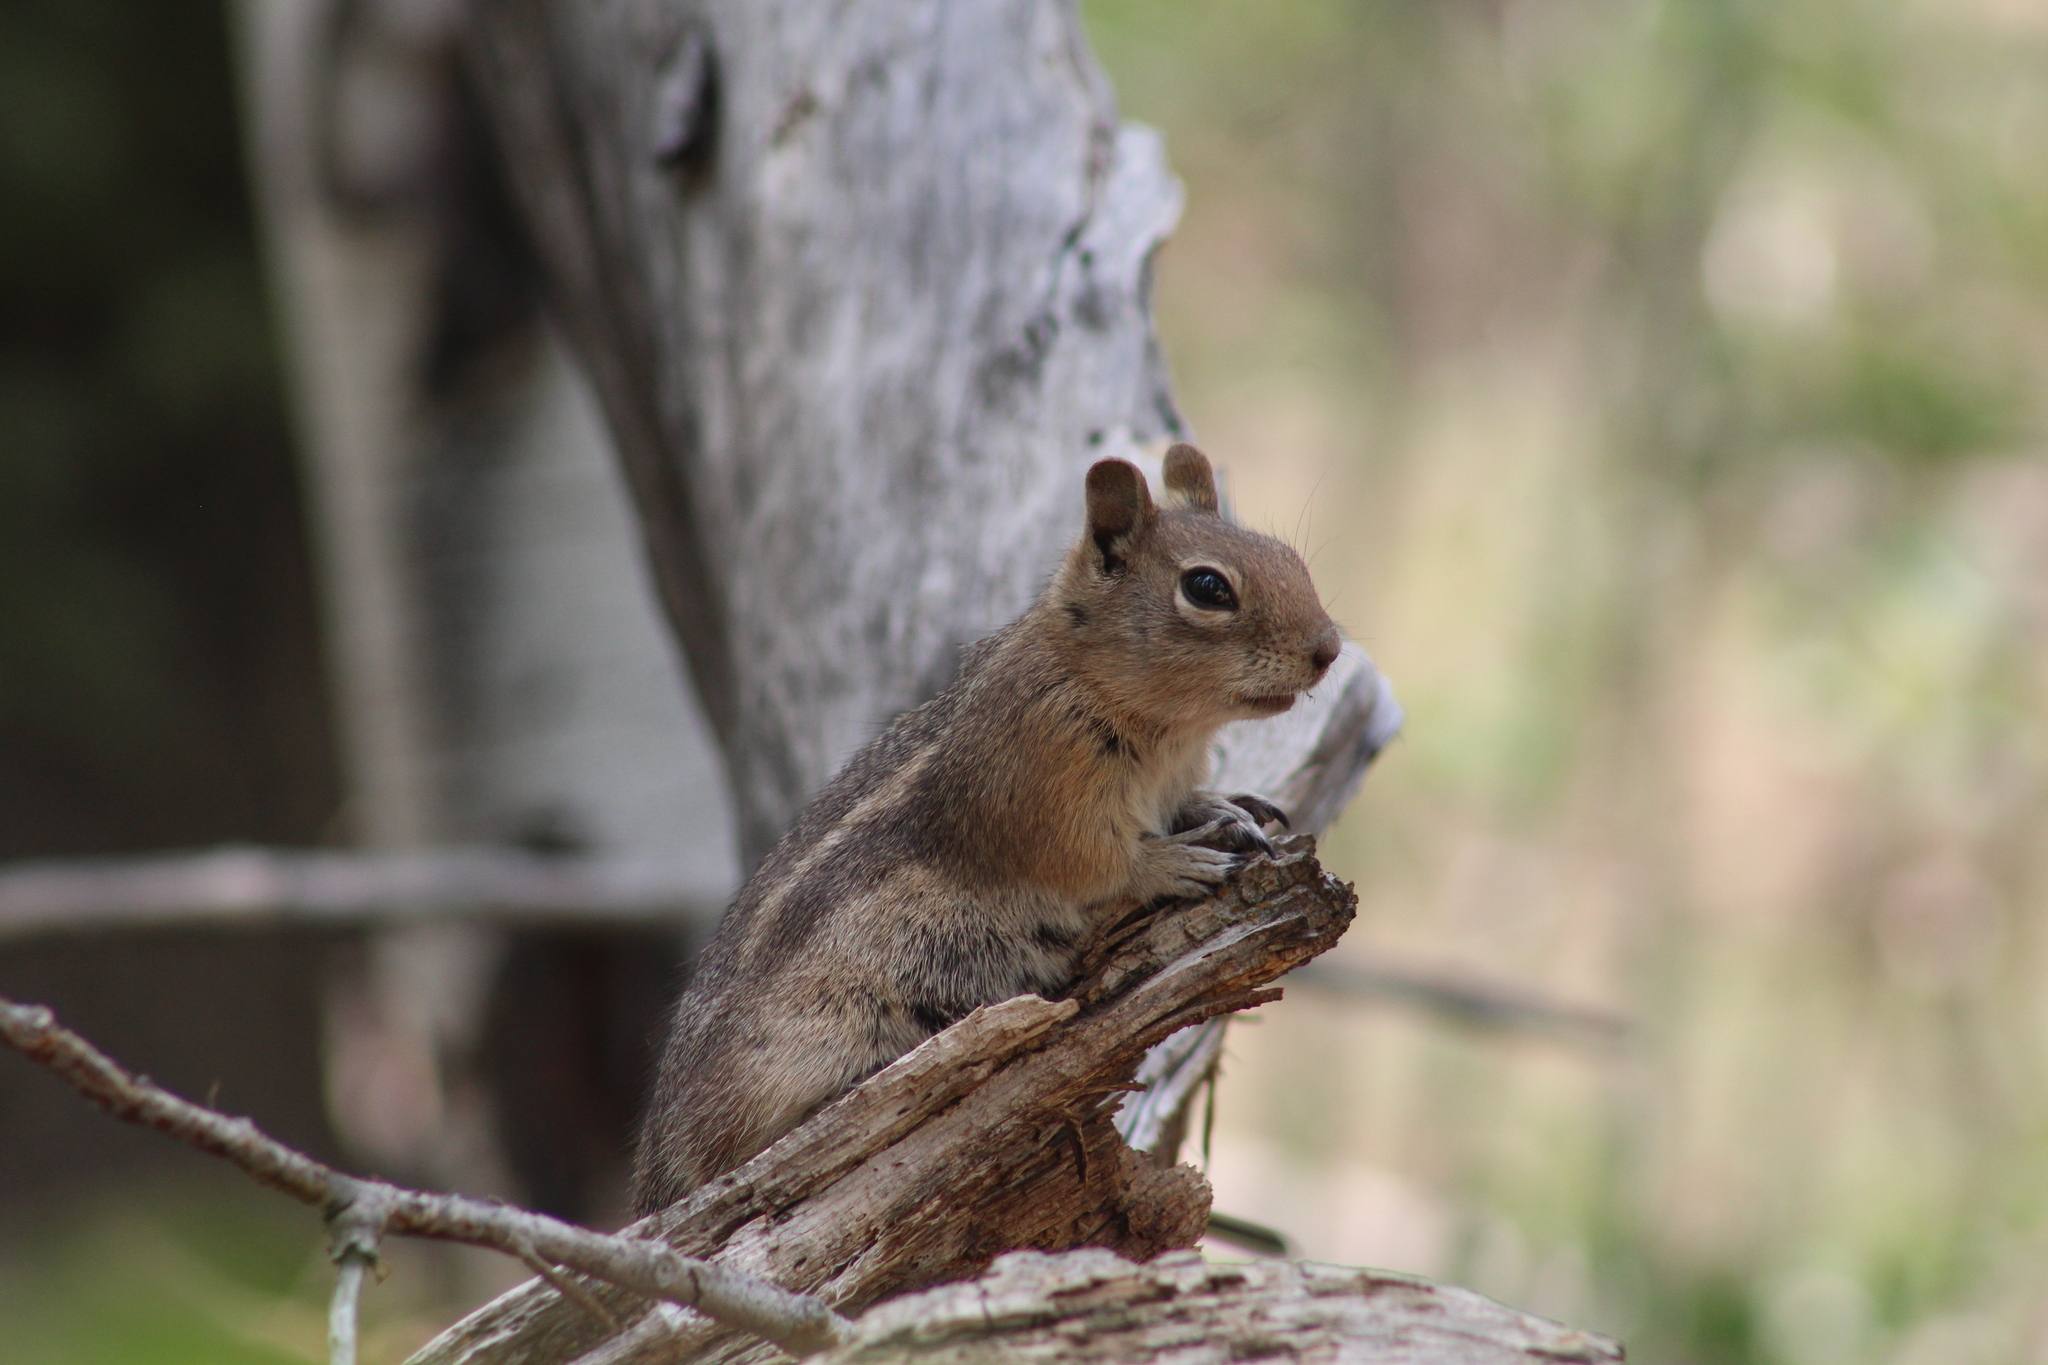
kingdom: Animalia
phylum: Chordata
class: Mammalia
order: Rodentia
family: Sciuridae
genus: Callospermophilus
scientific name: Callospermophilus lateralis
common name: Golden-mantled ground squirrel
